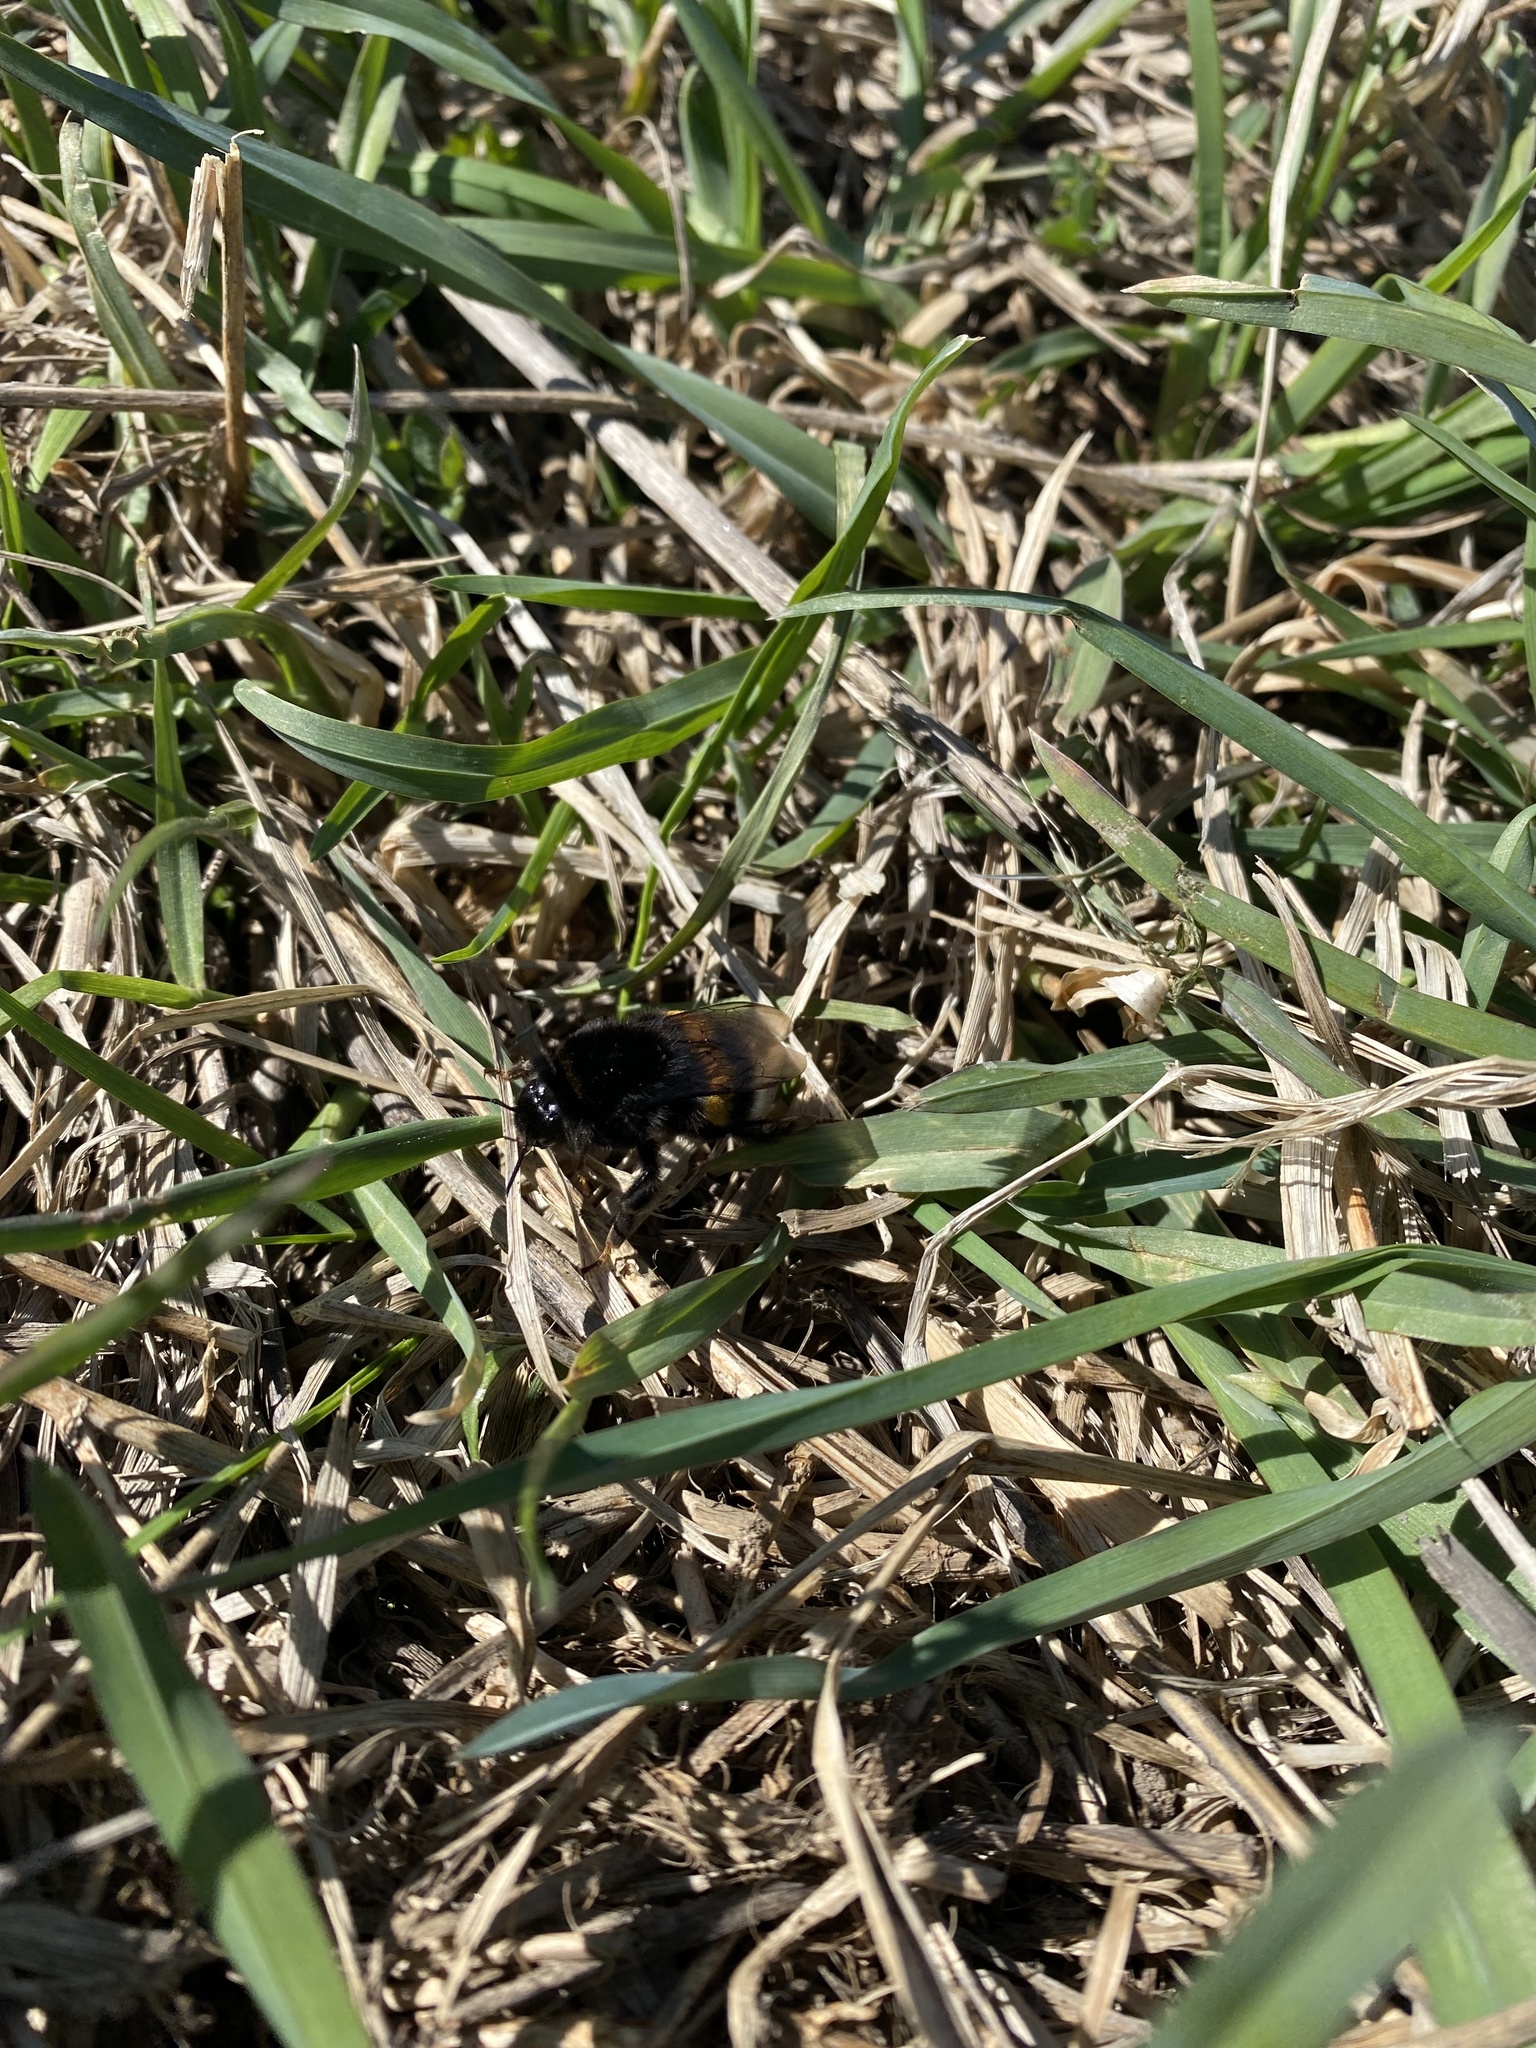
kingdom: Animalia
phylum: Arthropoda
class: Insecta
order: Hymenoptera
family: Apidae
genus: Bombus
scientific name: Bombus
